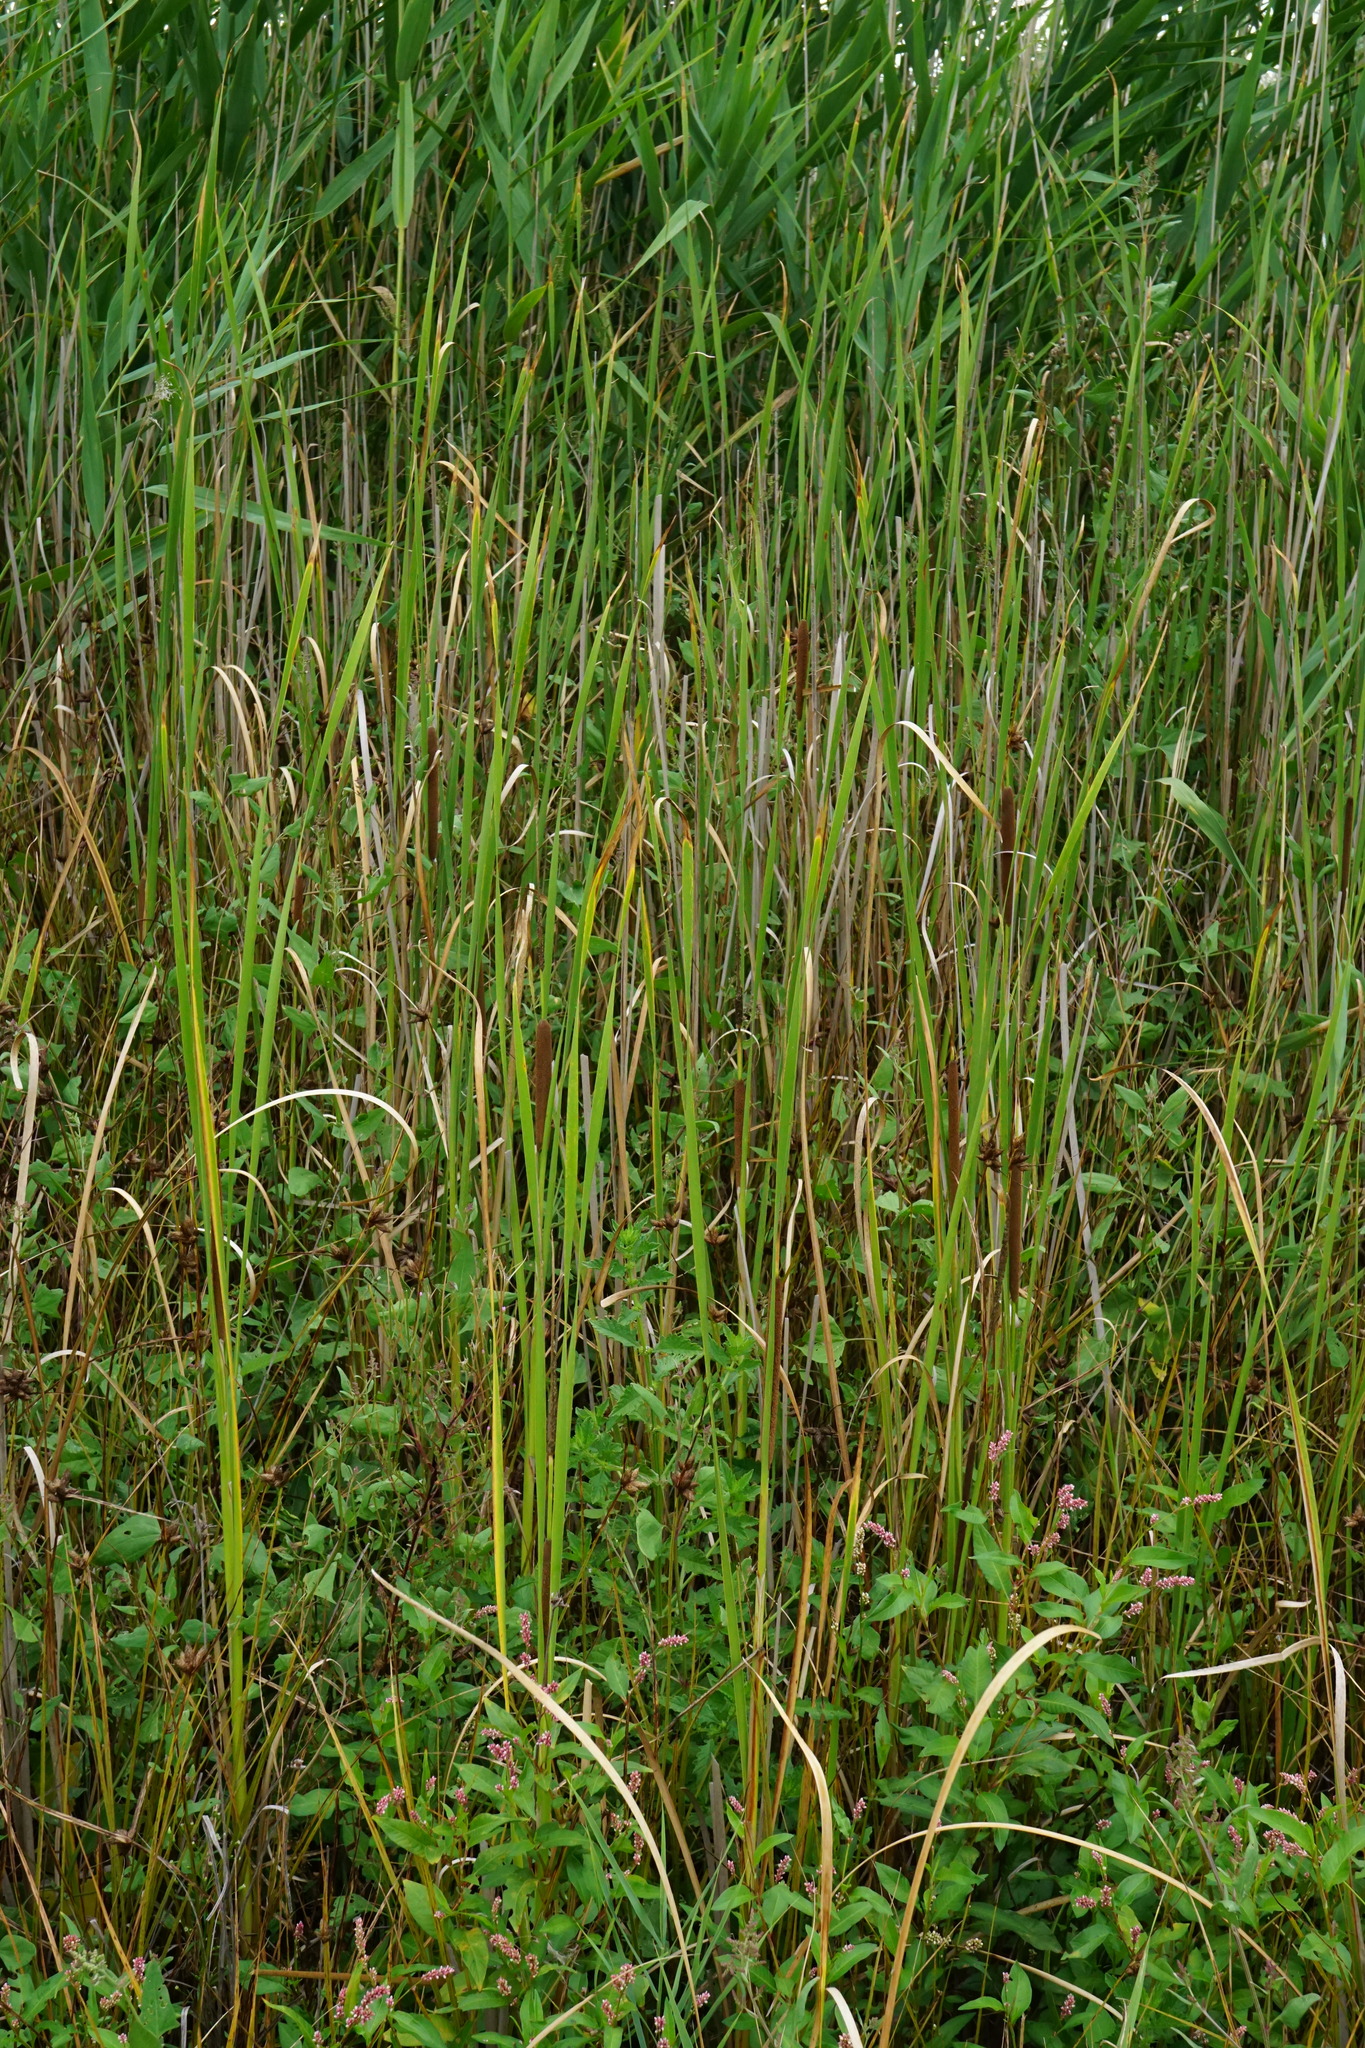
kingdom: Plantae
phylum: Tracheophyta
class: Liliopsida
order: Poales
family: Typhaceae
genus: Typha
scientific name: Typha angustifolia
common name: Lesser bulrush
